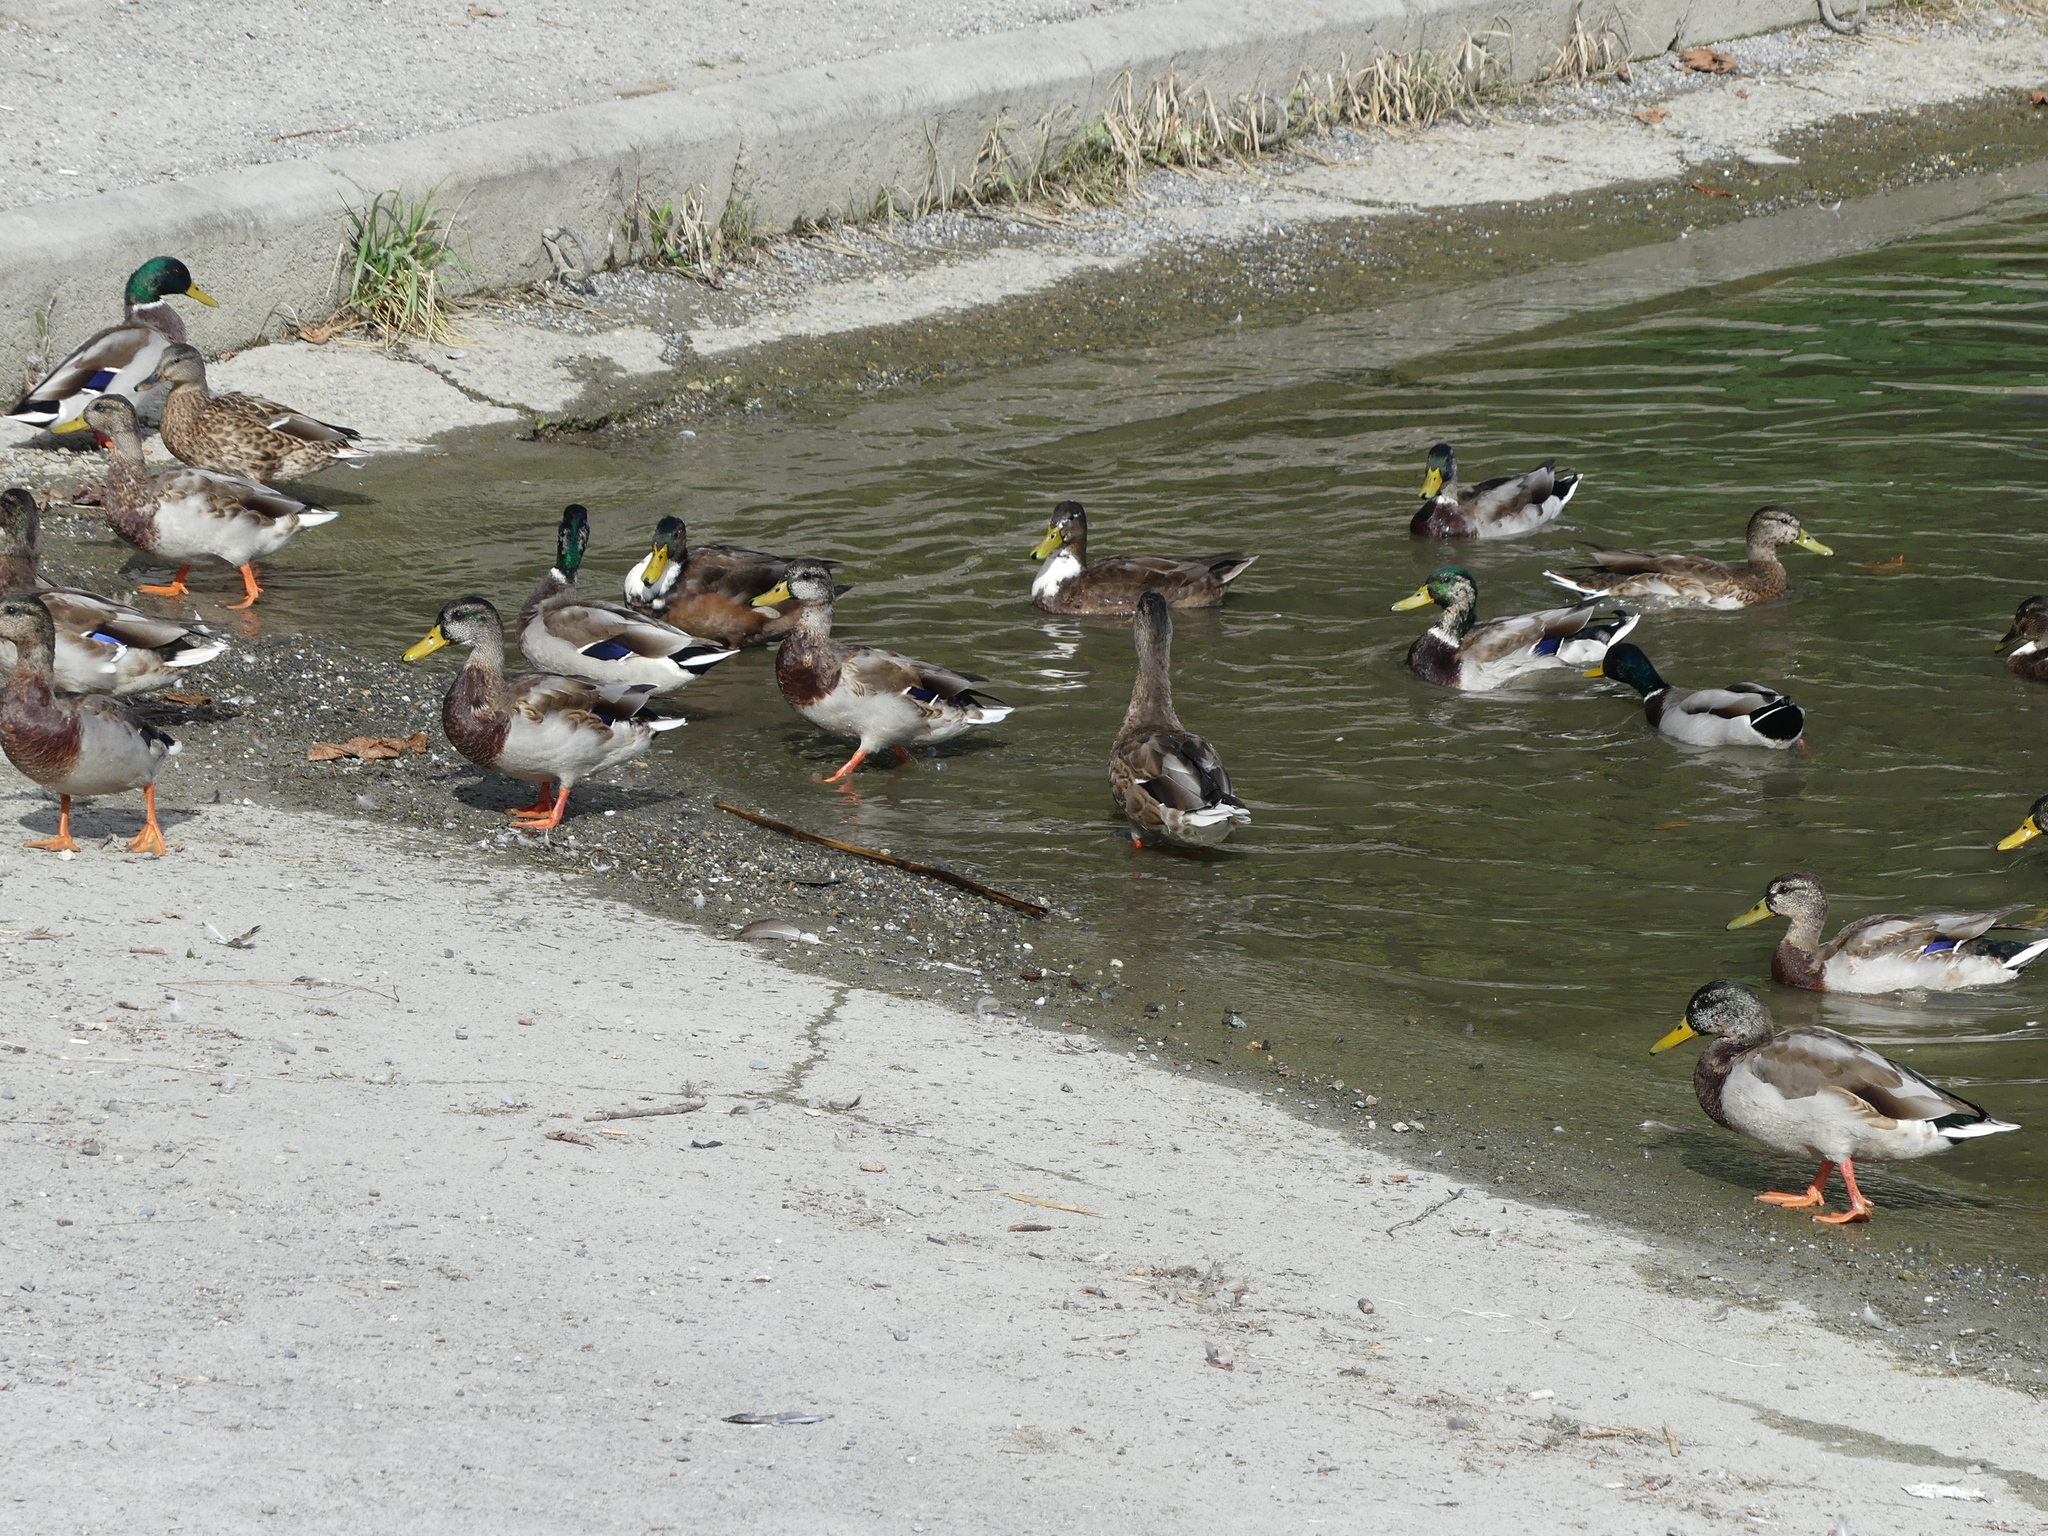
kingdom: Animalia
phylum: Chordata
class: Aves
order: Anseriformes
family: Anatidae
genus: Anas
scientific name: Anas platyrhynchos
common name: Mallard
